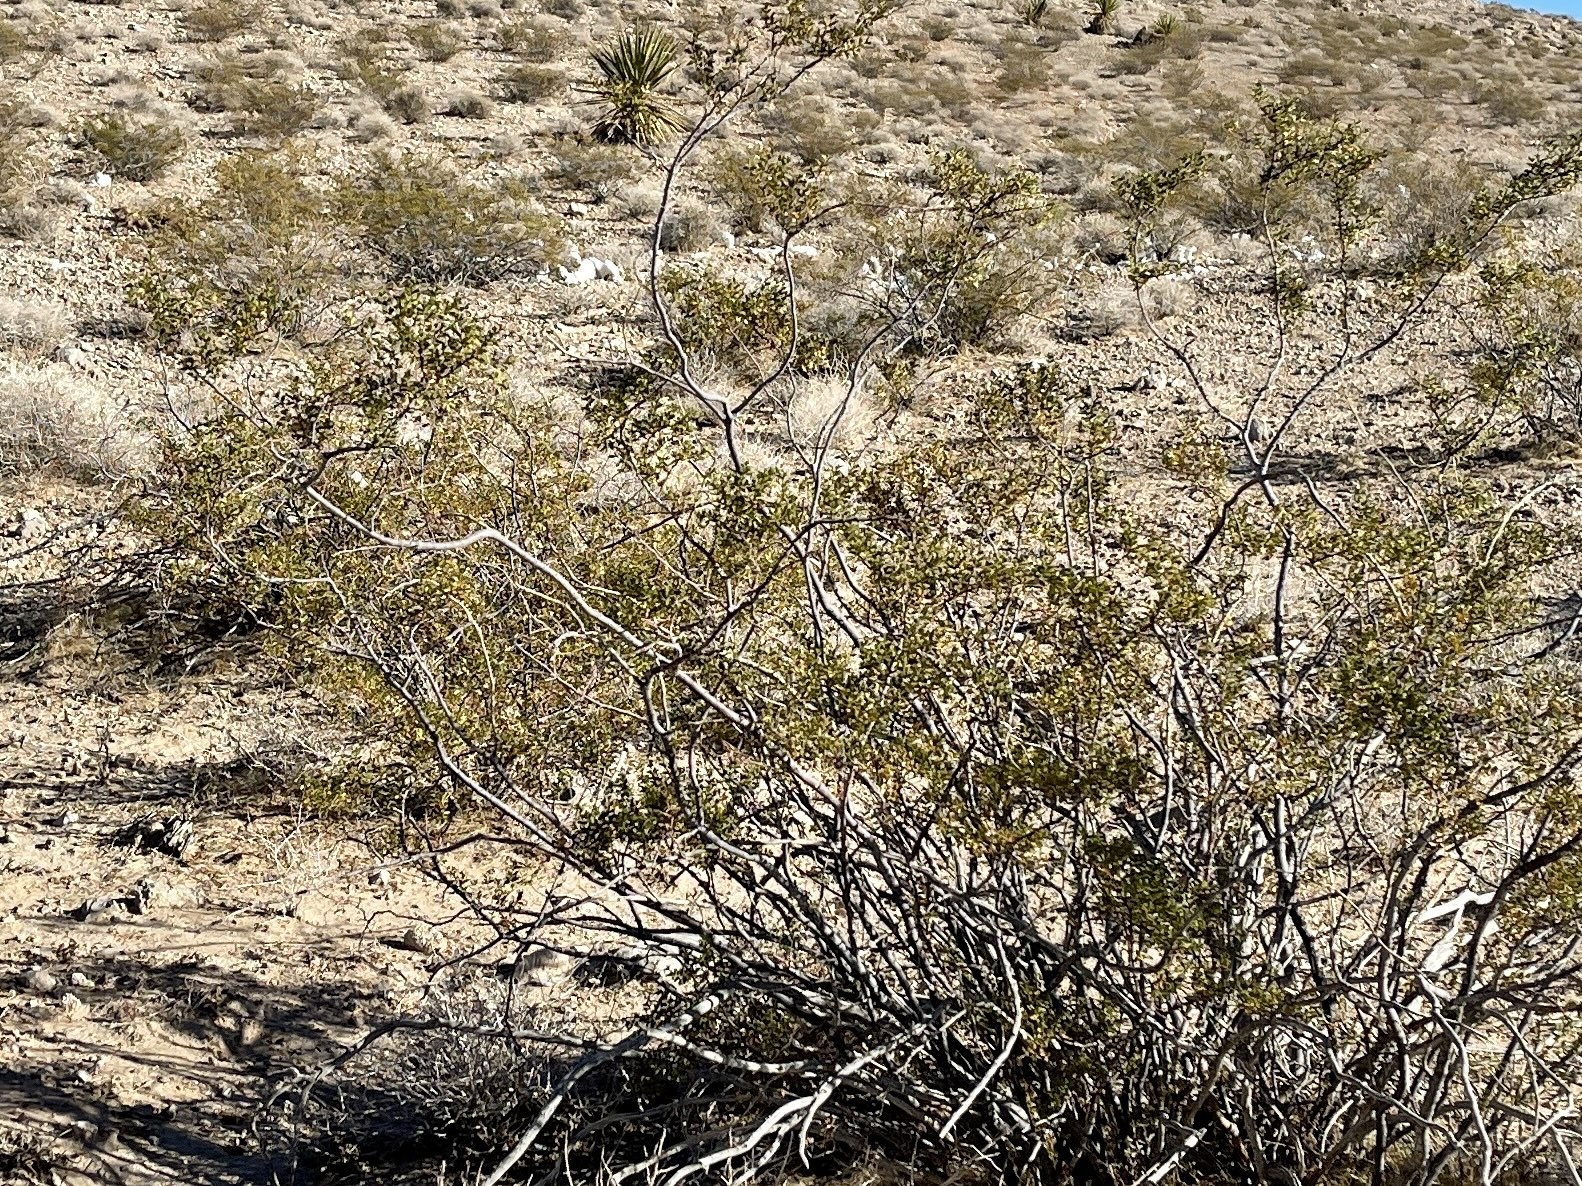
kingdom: Plantae
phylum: Tracheophyta
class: Magnoliopsida
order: Zygophyllales
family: Zygophyllaceae
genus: Larrea
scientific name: Larrea tridentata
